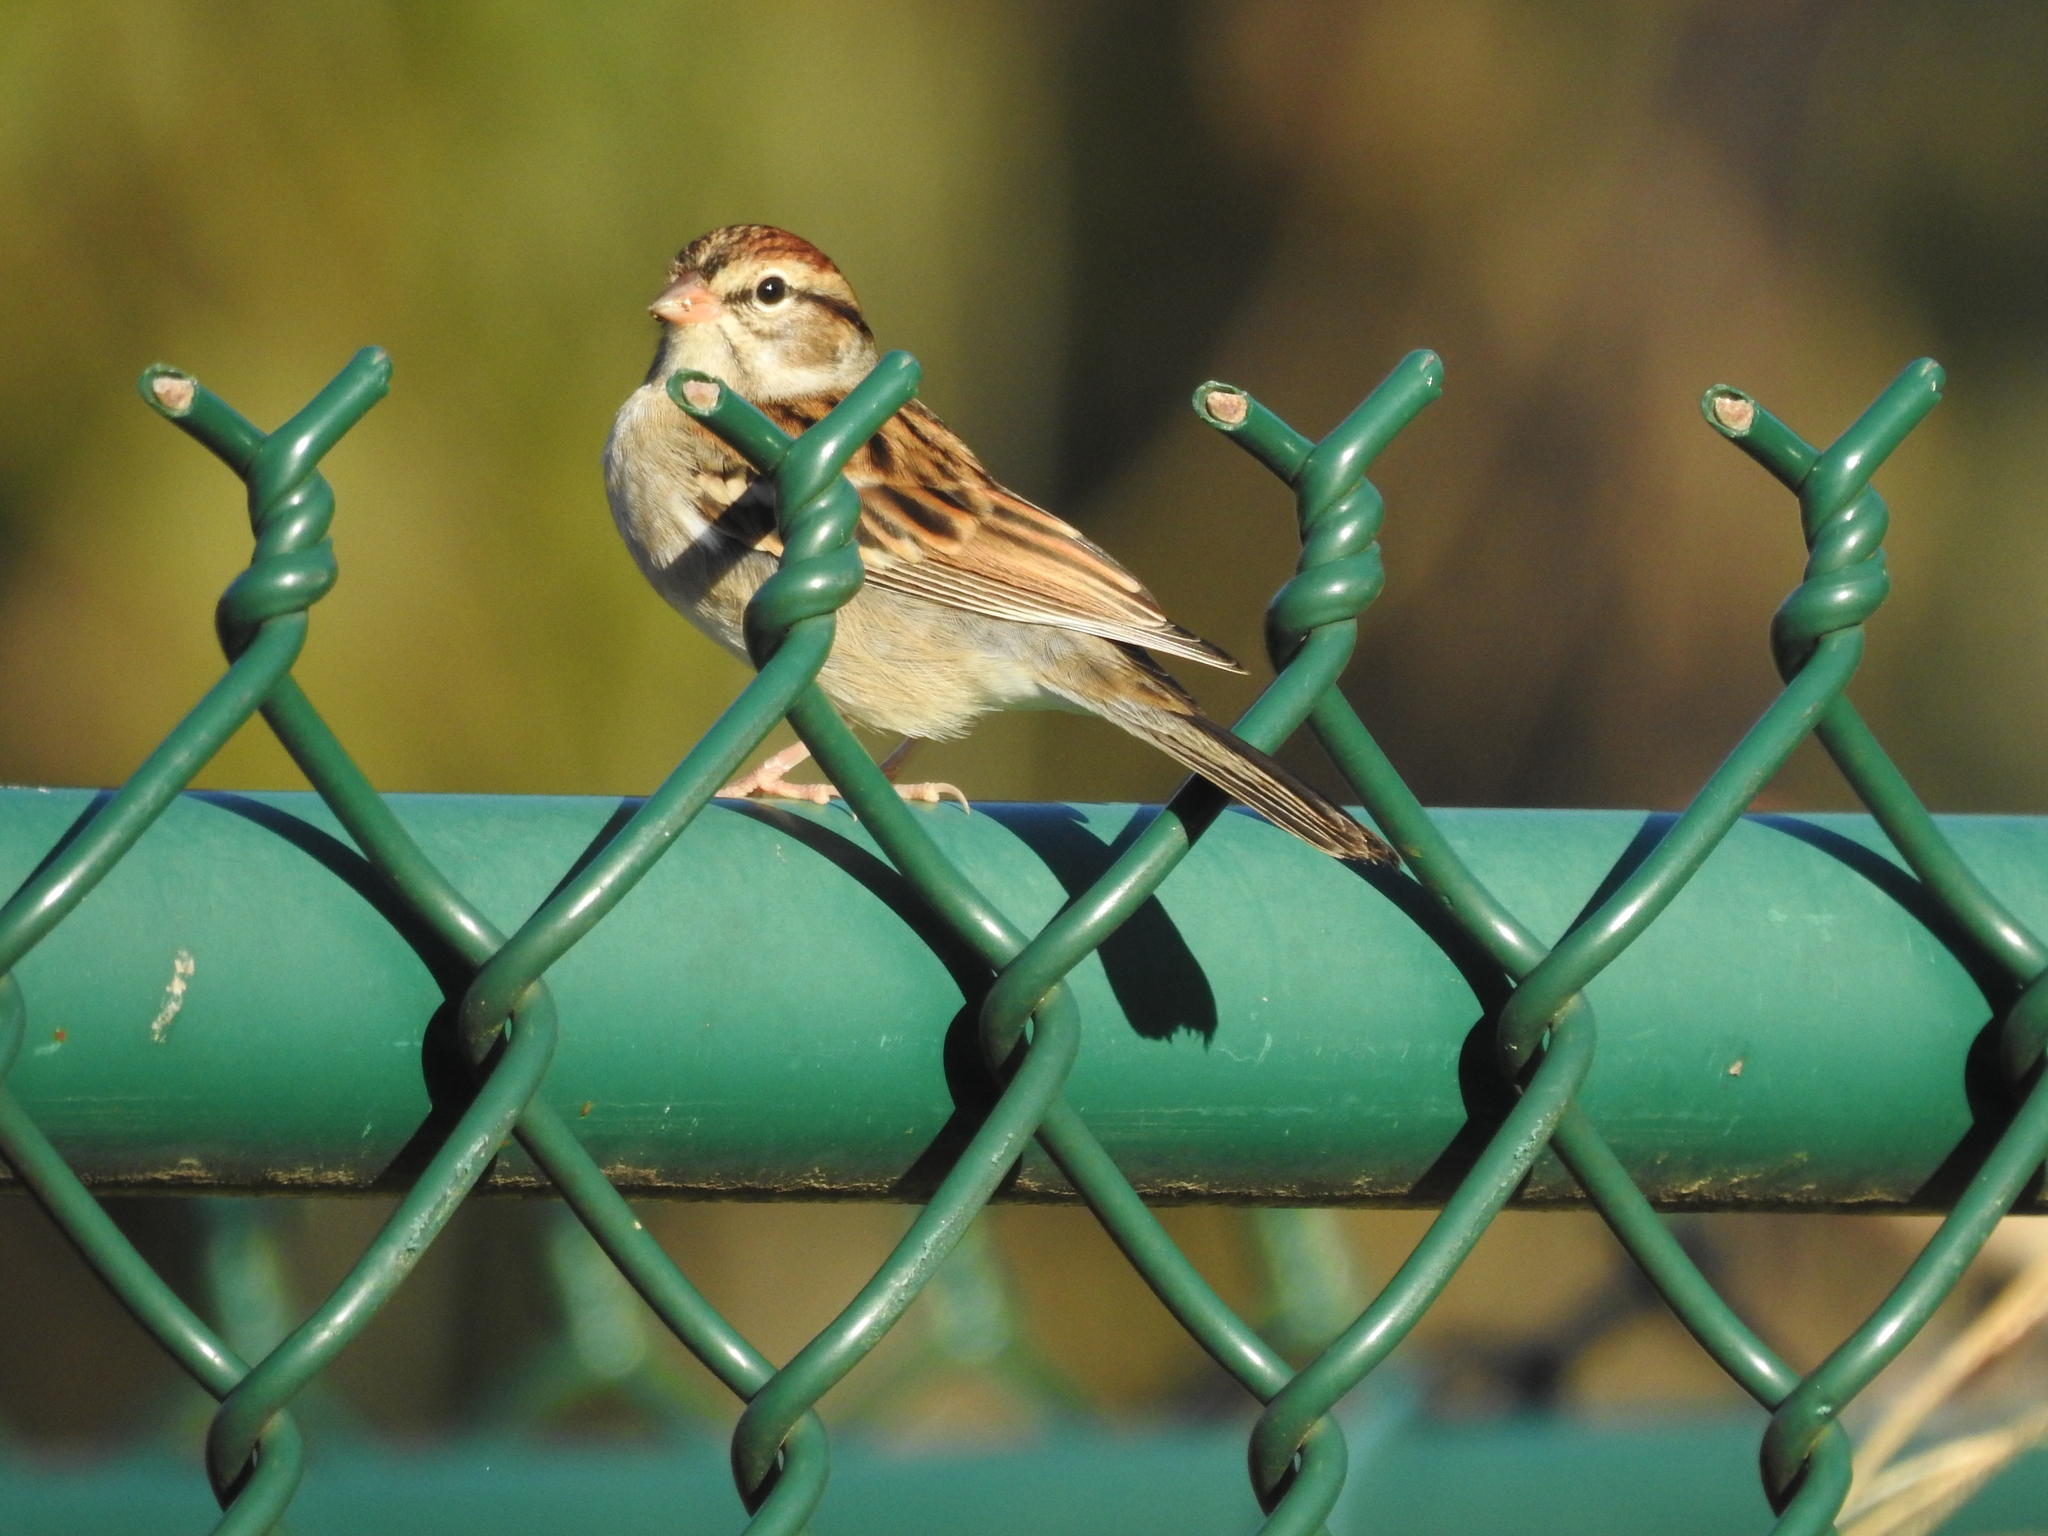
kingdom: Animalia
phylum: Chordata
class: Aves
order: Passeriformes
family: Passerellidae
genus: Spizella
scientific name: Spizella passerina
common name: Chipping sparrow
